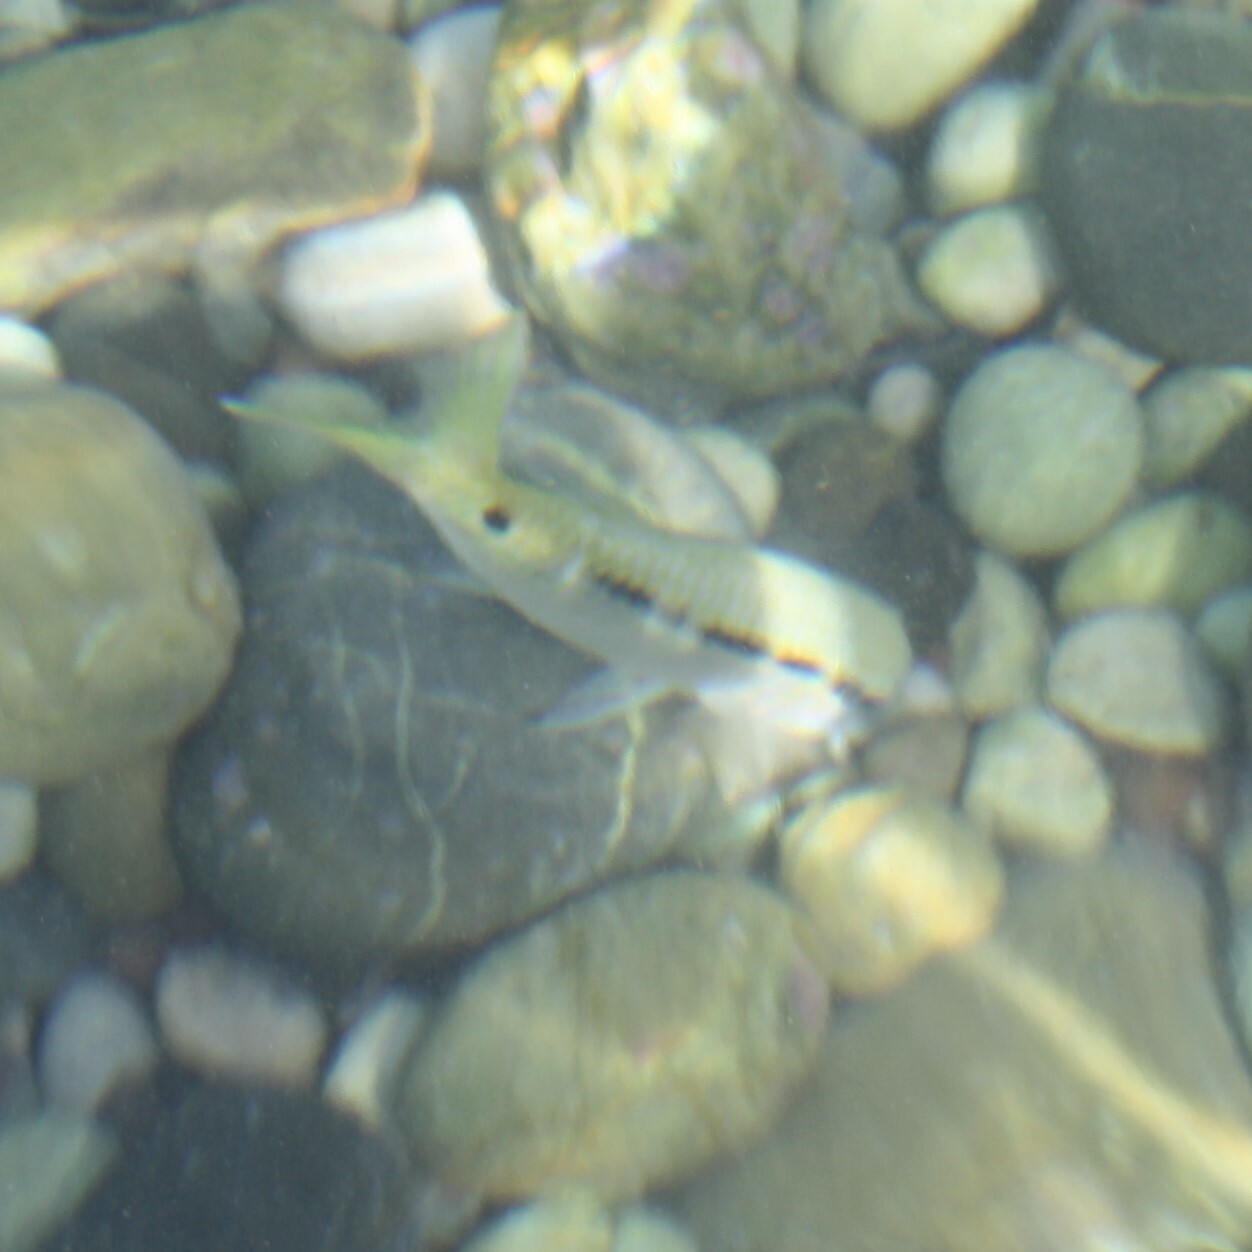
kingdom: Animalia
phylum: Chordata
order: Perciformes
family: Mullidae
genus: Parupeneus
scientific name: Parupeneus forsskali
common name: Red sea goatfish
